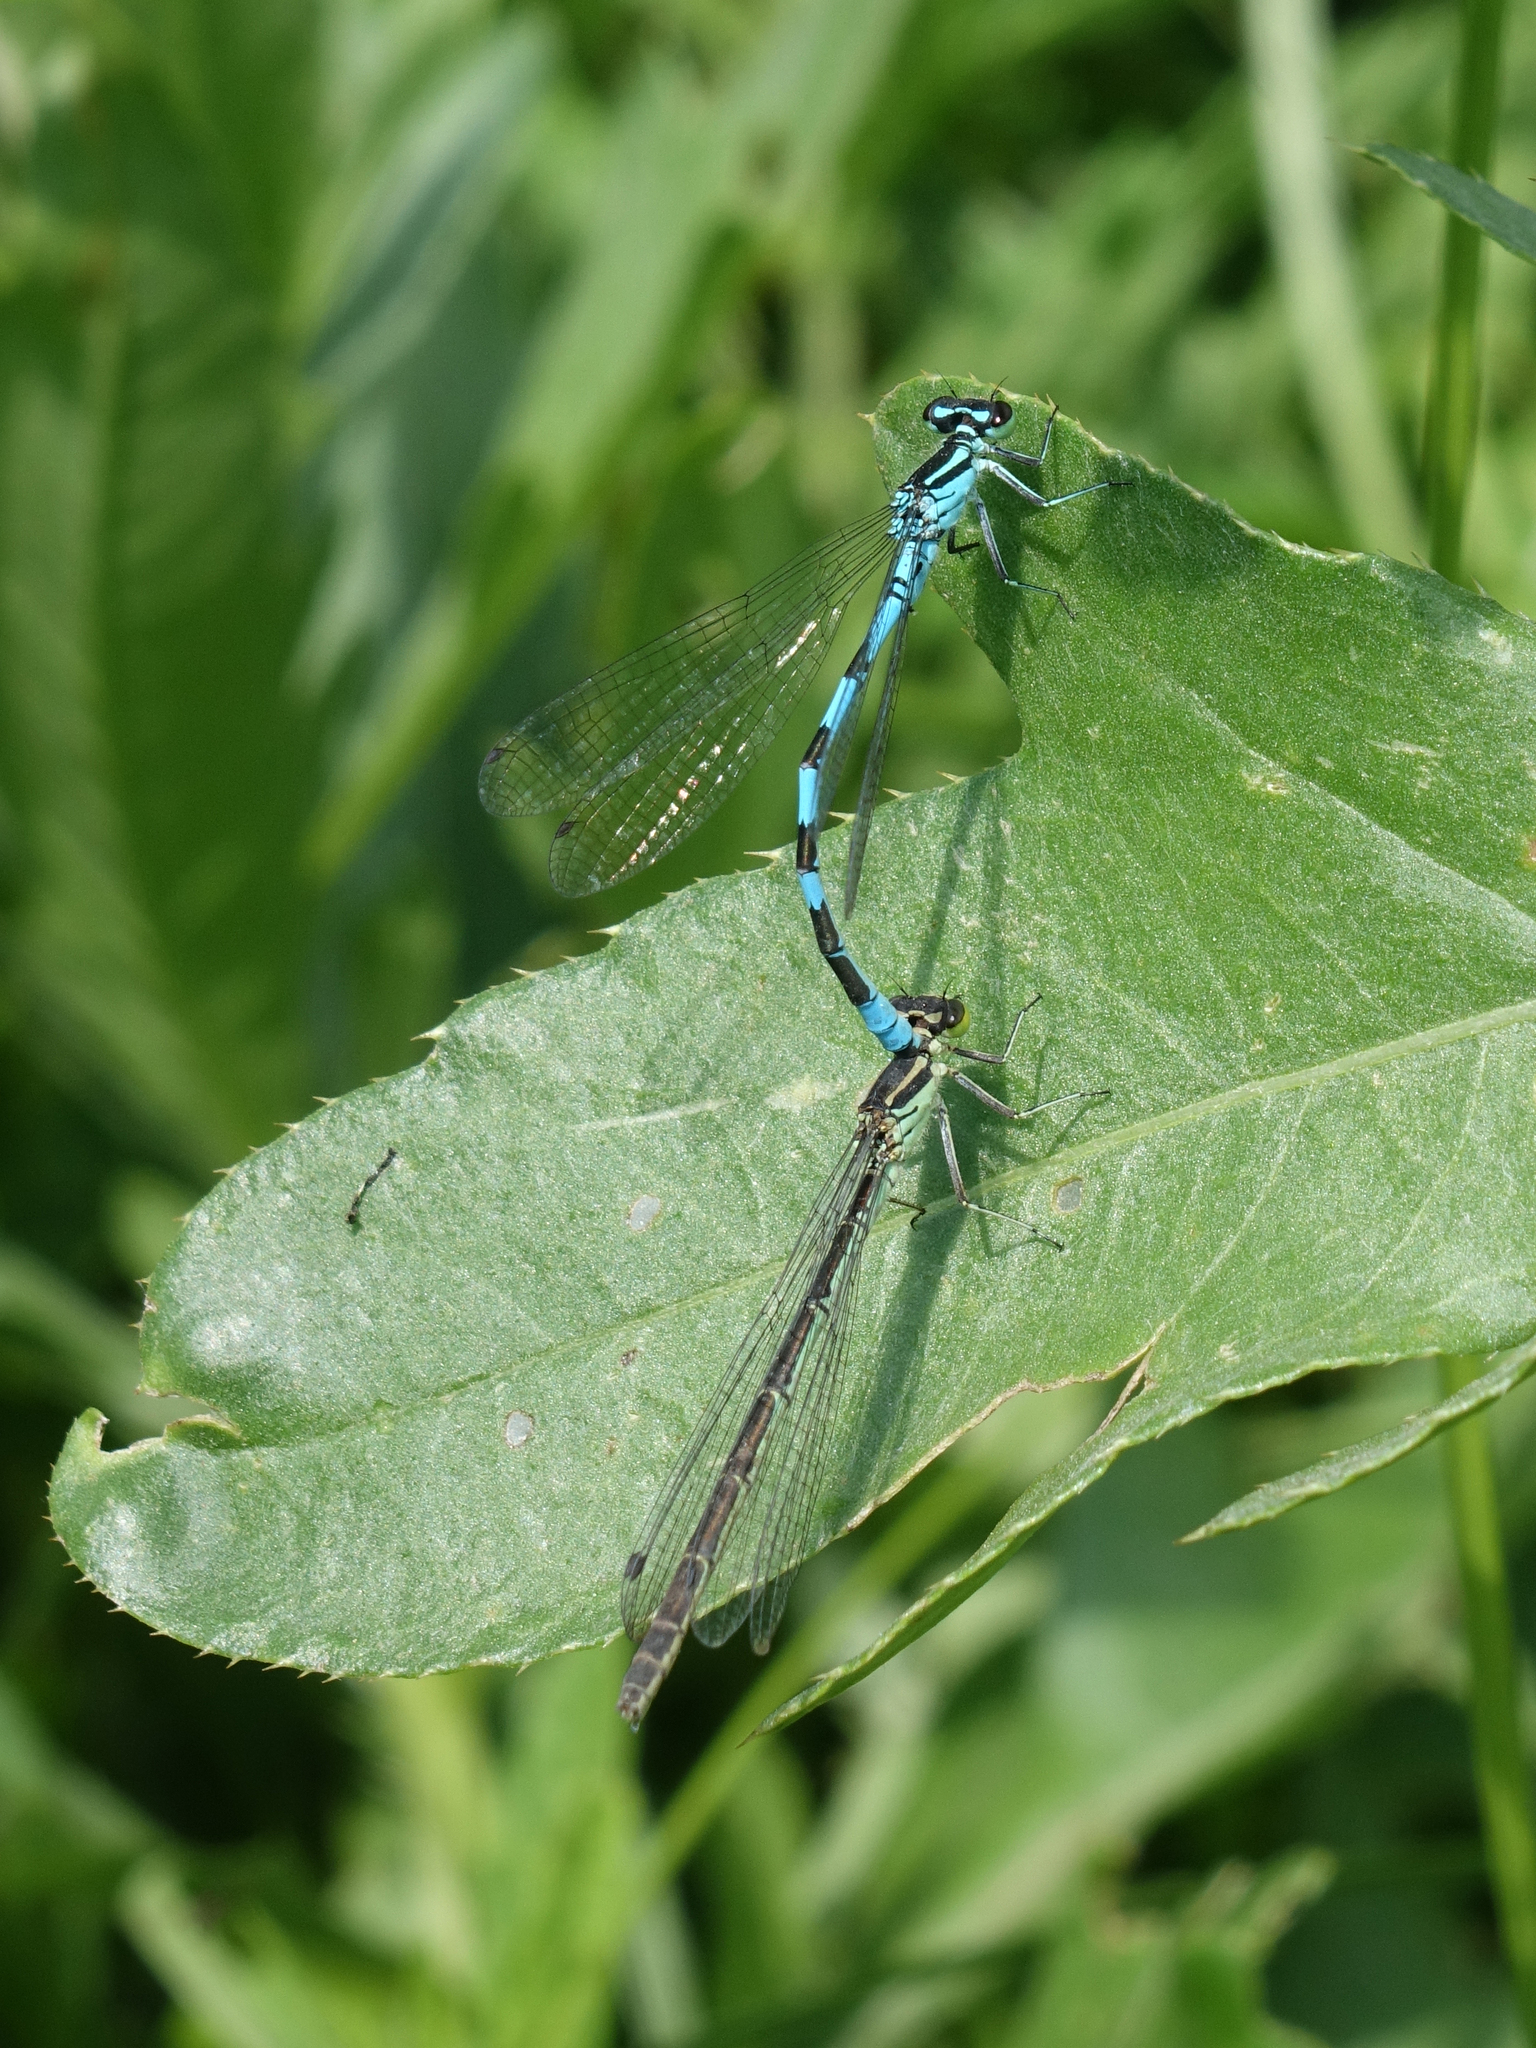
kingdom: Animalia
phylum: Arthropoda
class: Insecta
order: Odonata
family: Coenagrionidae
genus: Coenagrion
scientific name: Coenagrion hastulatum
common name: Spearhead bluet
